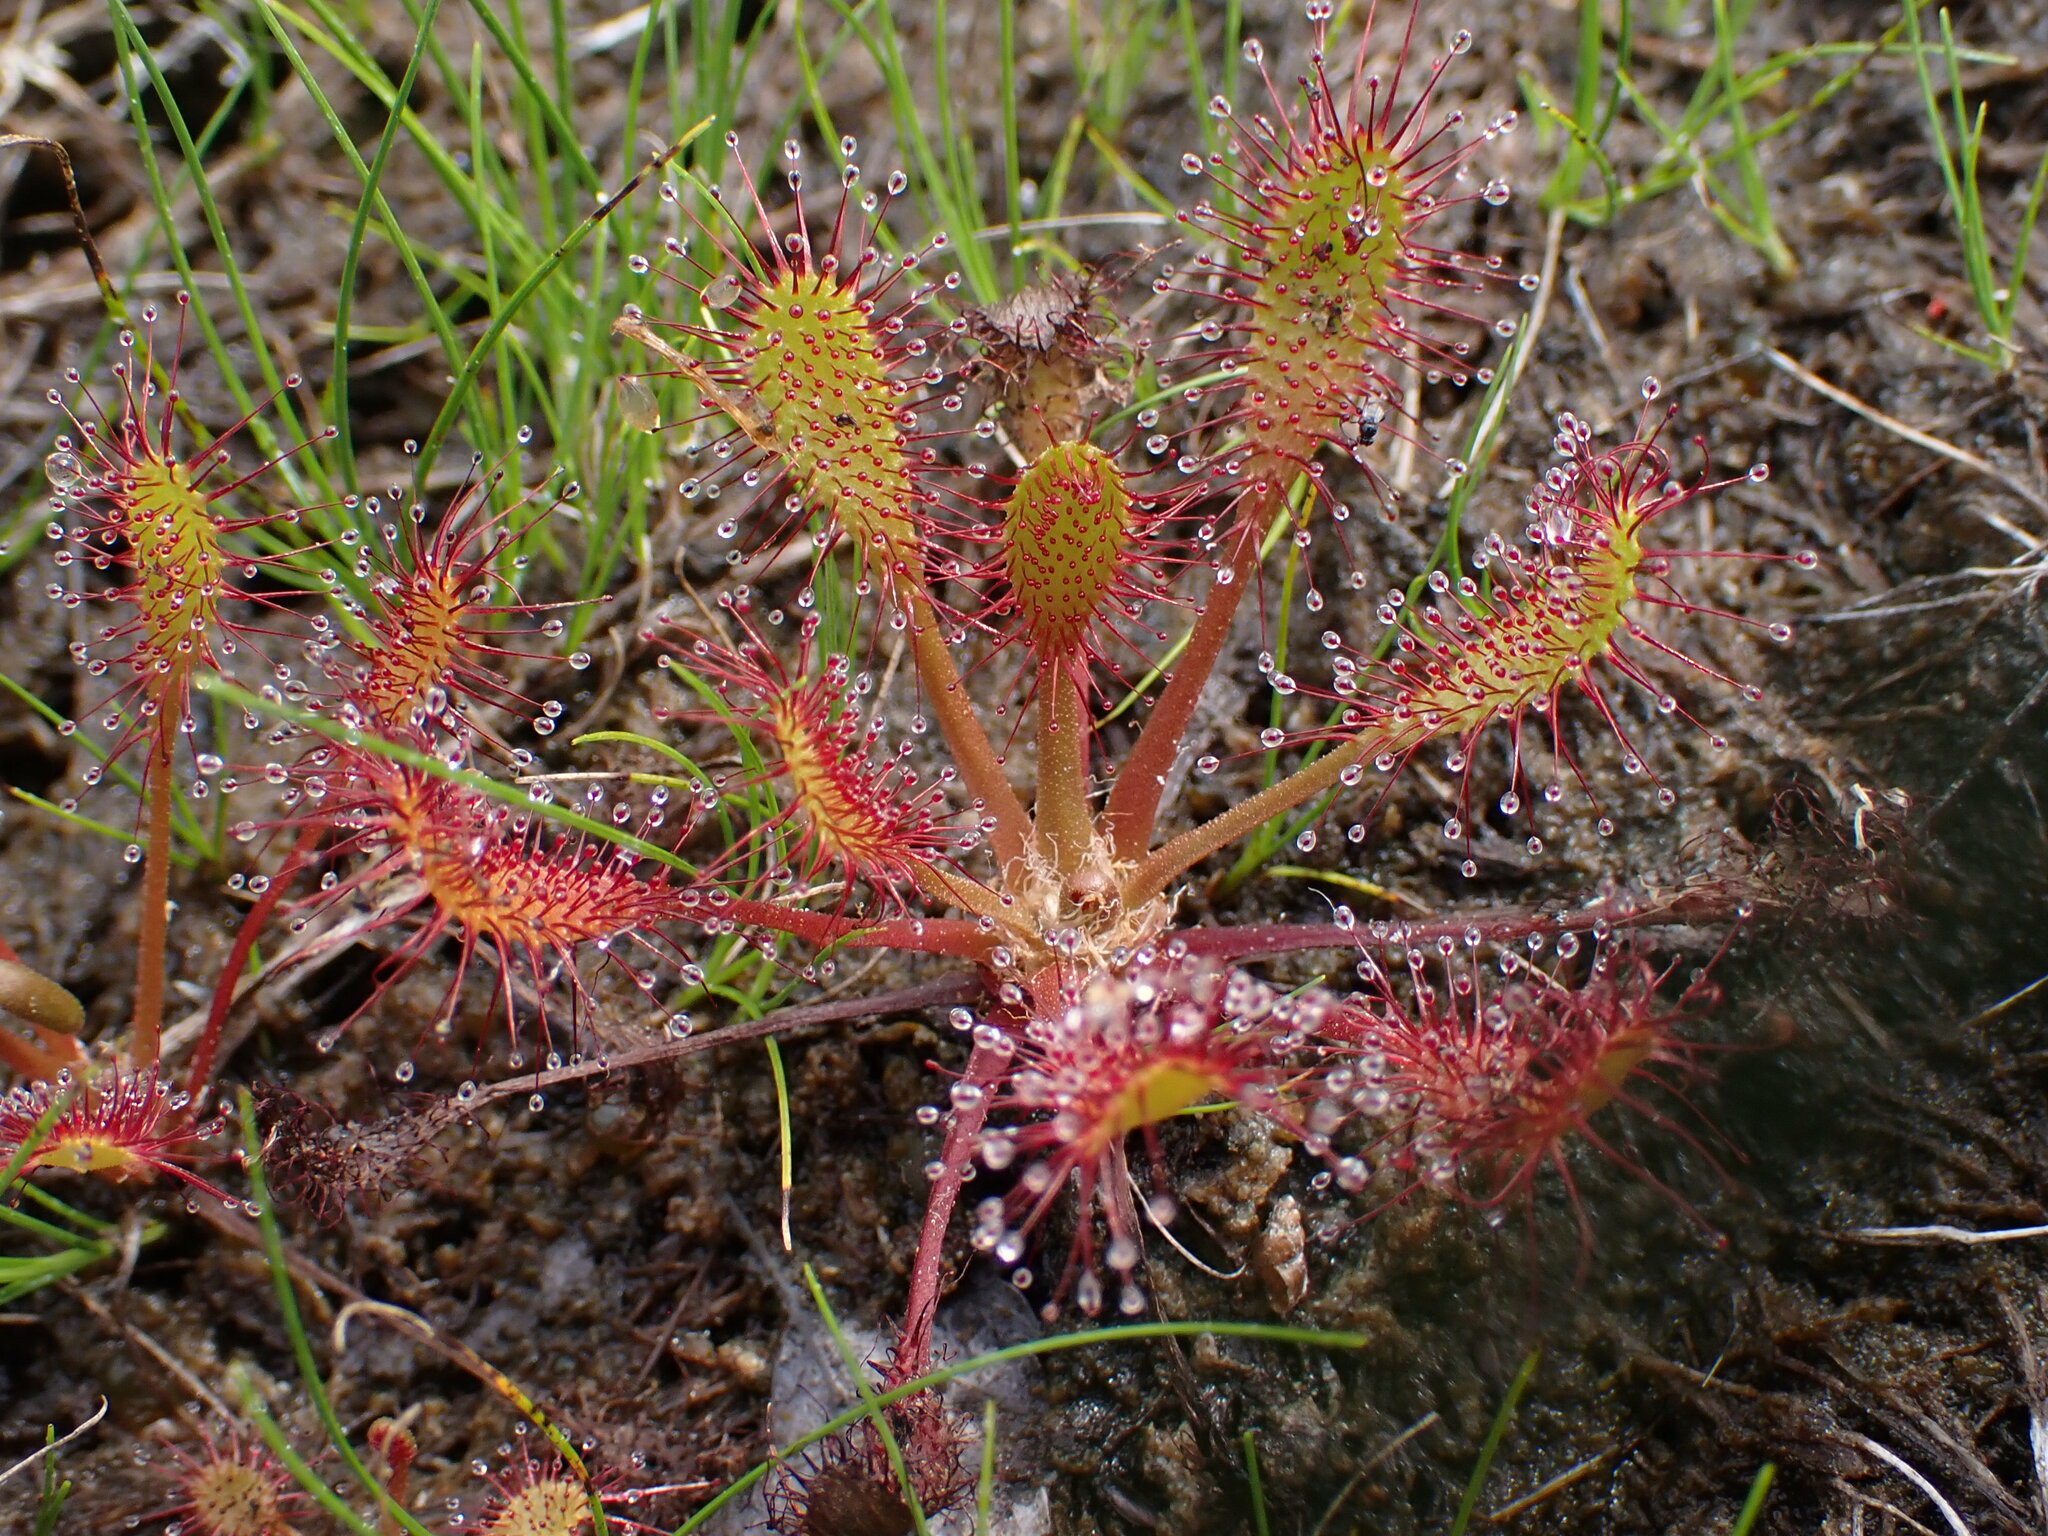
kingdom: Plantae
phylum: Tracheophyta
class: Magnoliopsida
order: Caryophyllales
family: Droseraceae
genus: Drosera
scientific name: Drosera anglica
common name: Great sundew
